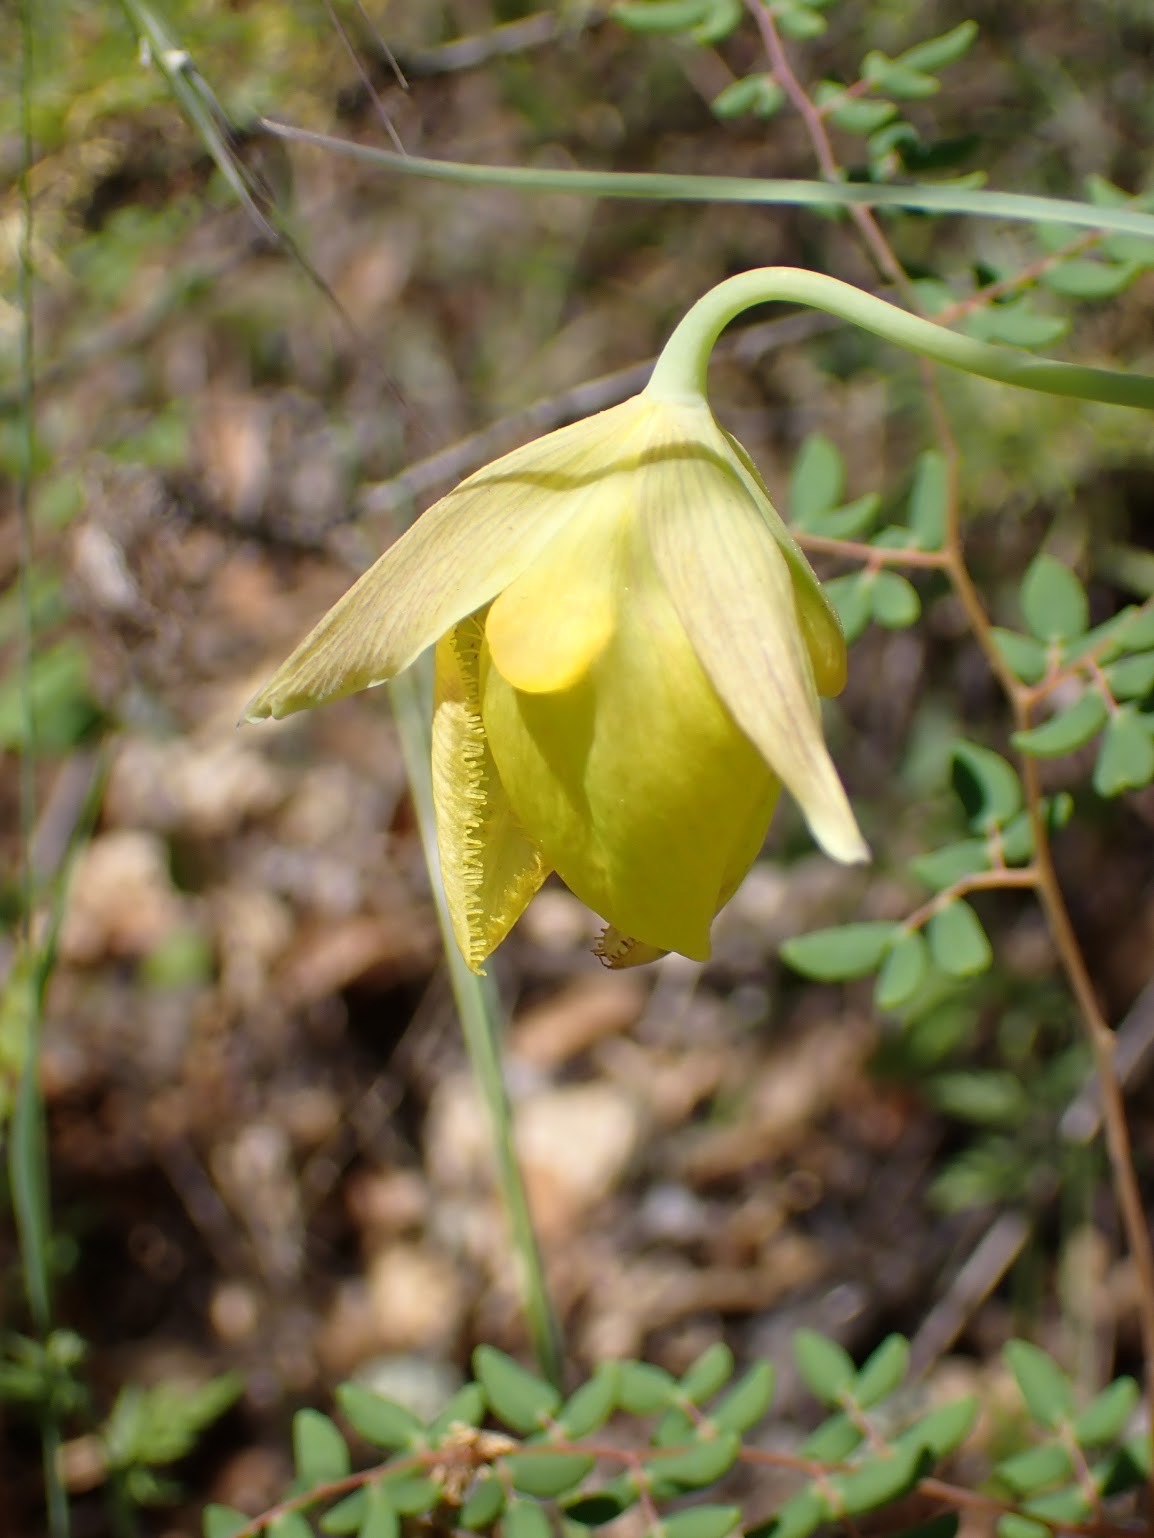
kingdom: Plantae
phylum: Tracheophyta
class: Liliopsida
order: Liliales
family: Liliaceae
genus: Calochortus
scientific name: Calochortus pulchellus
